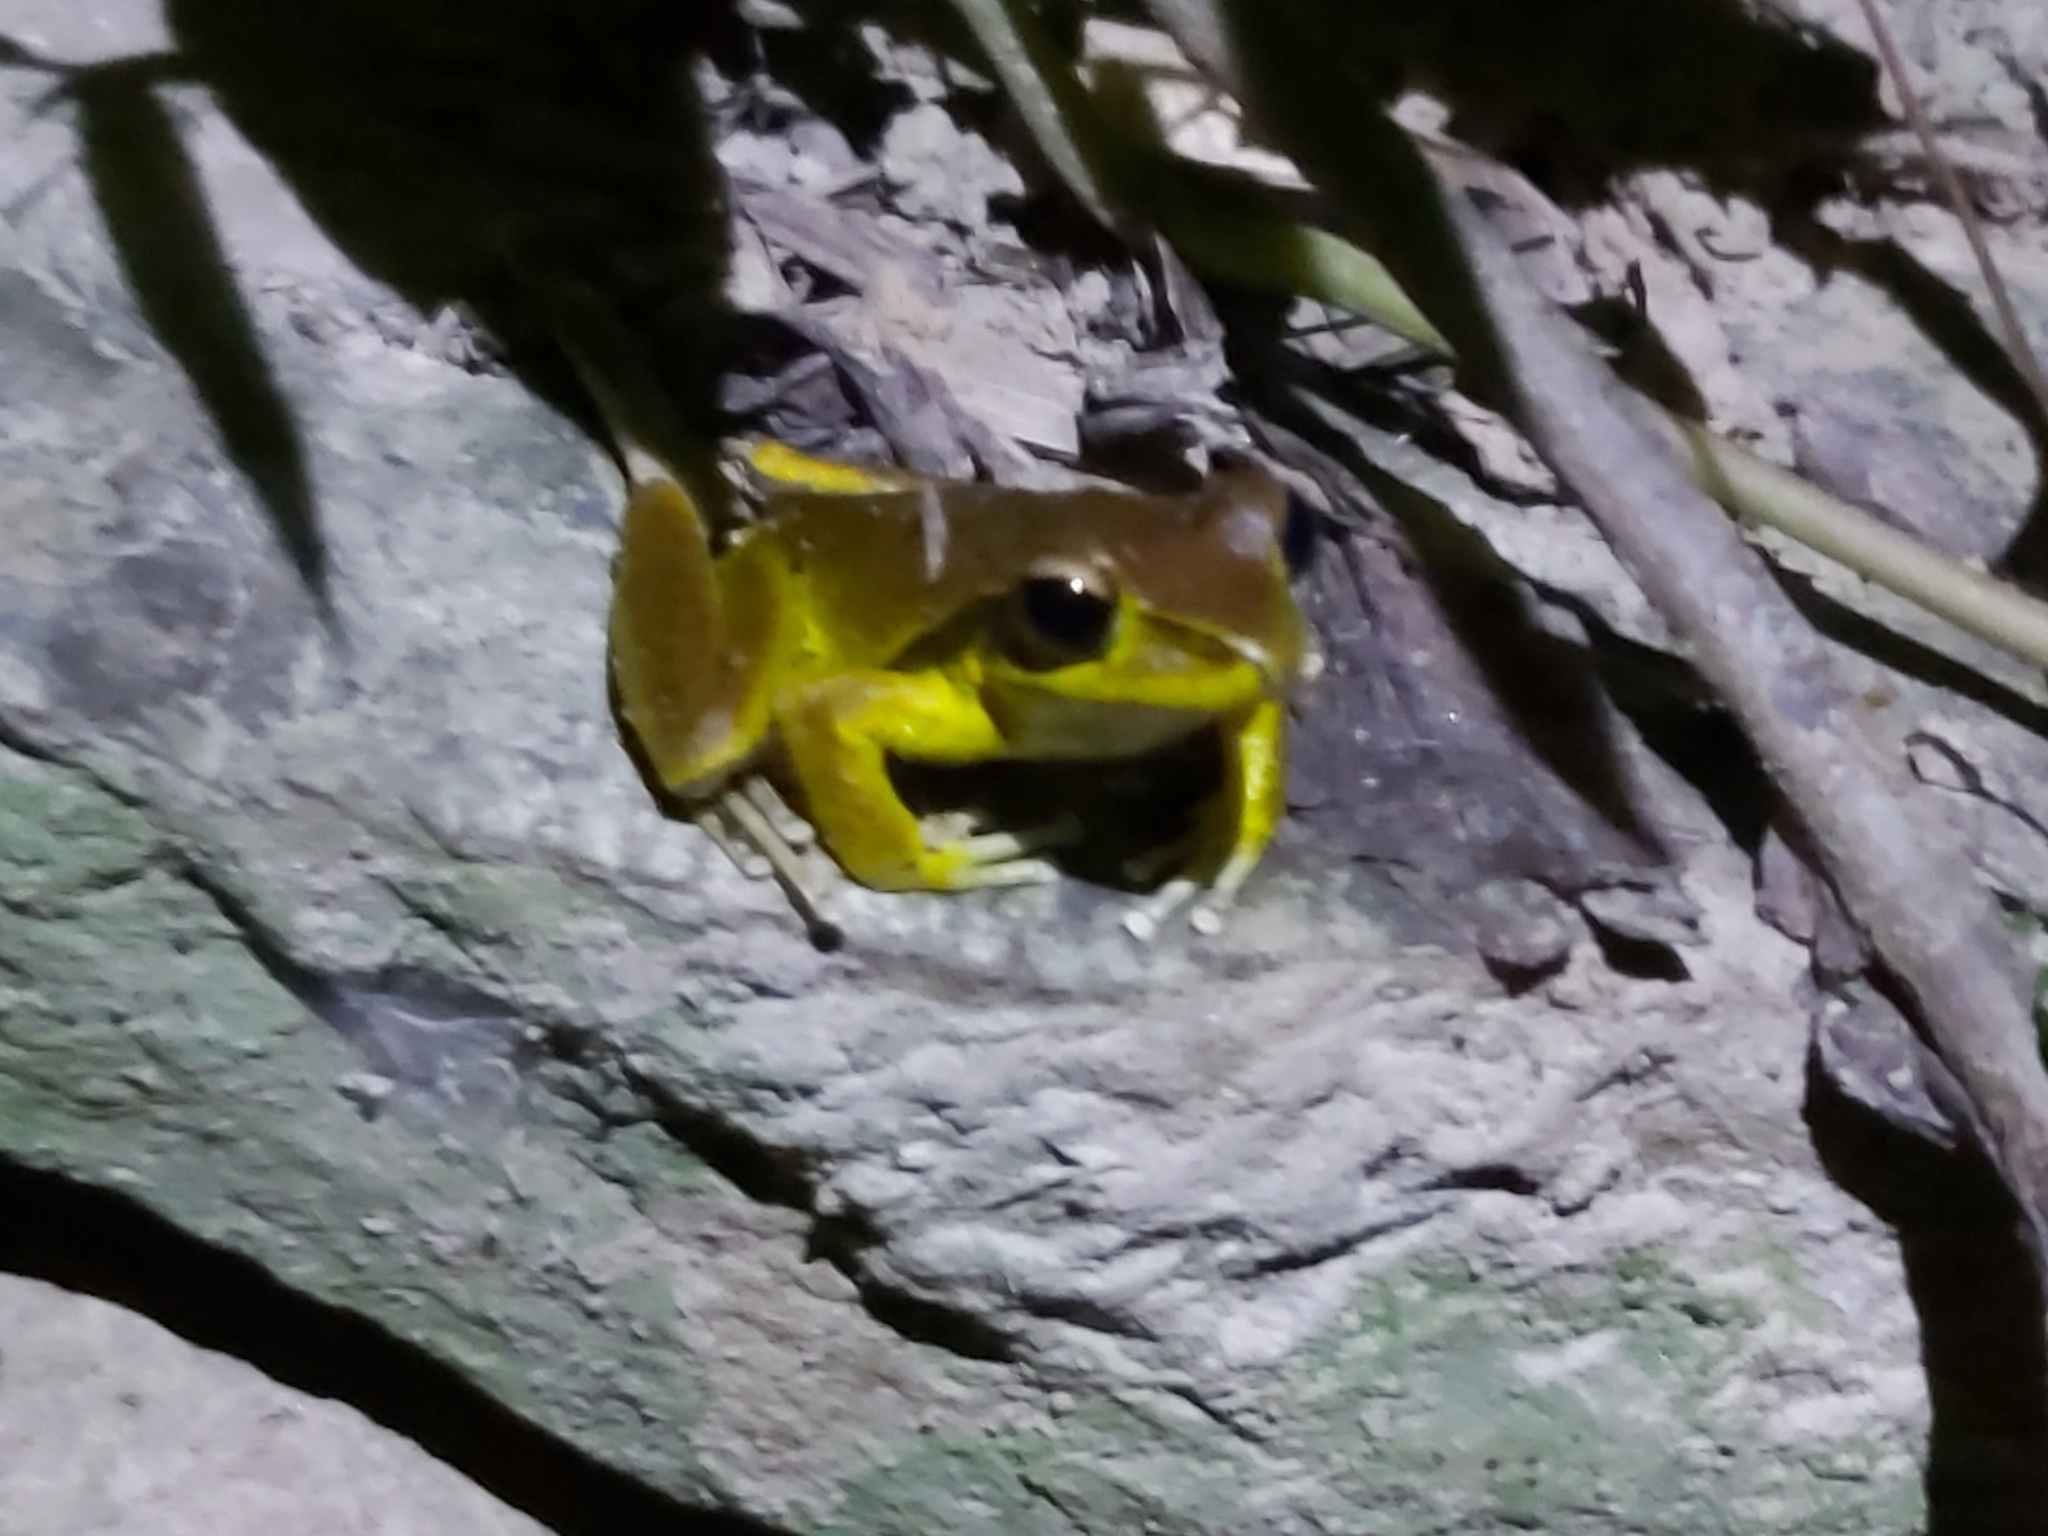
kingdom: Animalia
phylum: Chordata
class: Amphibia
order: Anura
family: Hylidae
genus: Ranoidea
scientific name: Ranoidea
